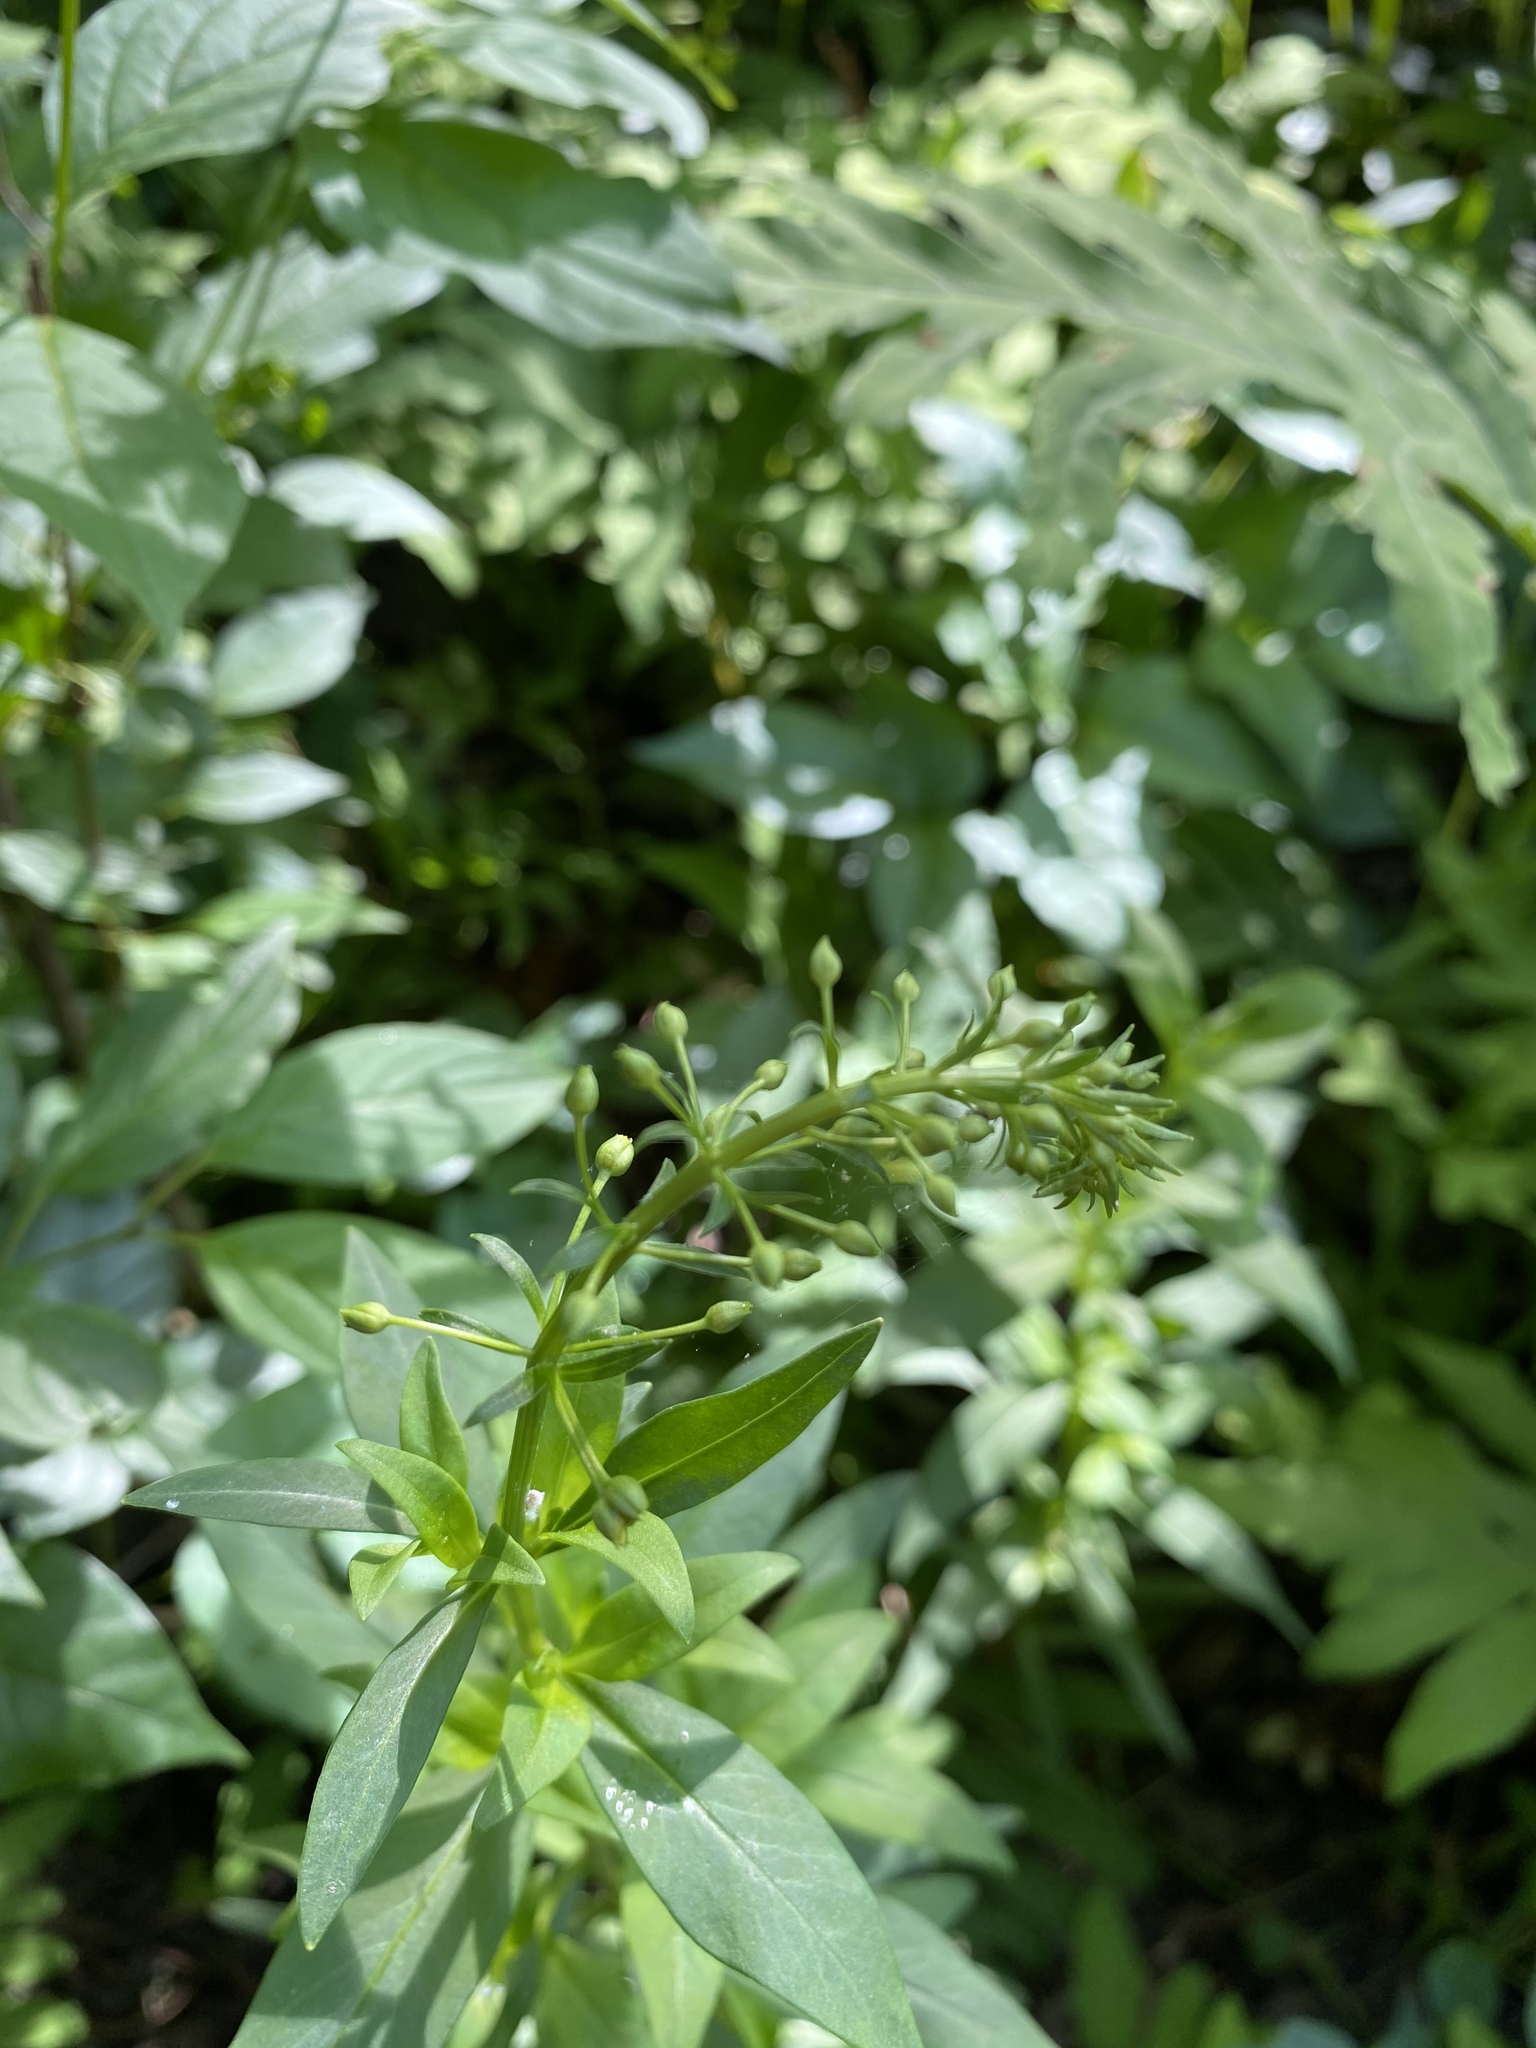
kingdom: Plantae
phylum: Tracheophyta
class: Magnoliopsida
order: Ericales
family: Primulaceae
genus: Lysimachia
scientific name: Lysimachia terrestris
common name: Lake loosestrife
